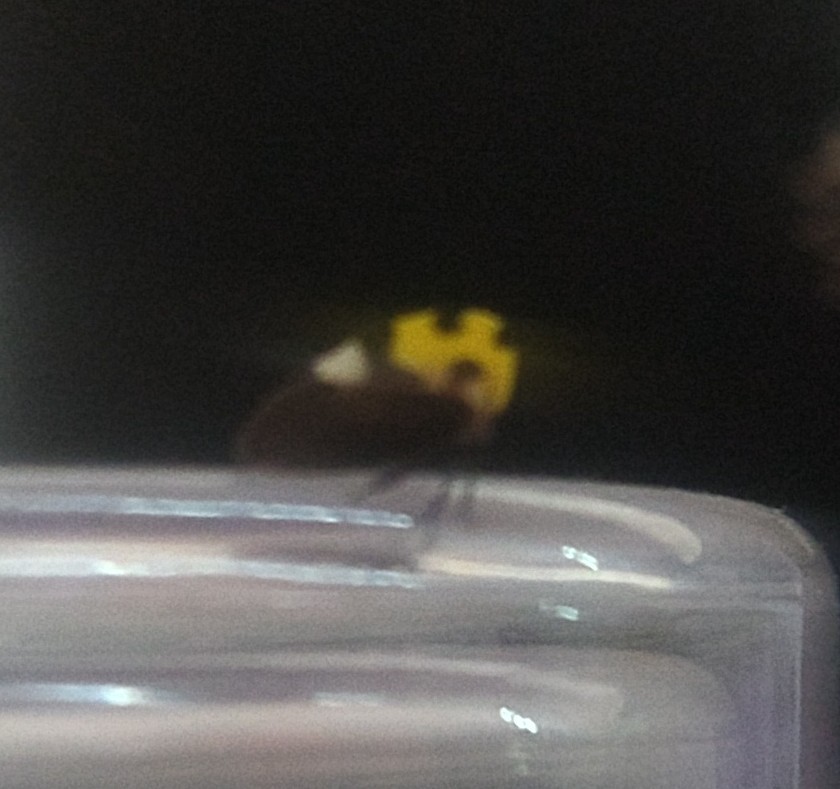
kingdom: Animalia
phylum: Arthropoda
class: Insecta
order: Hemiptera
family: Membracidae
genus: Membracis
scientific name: Membracis mexicana
